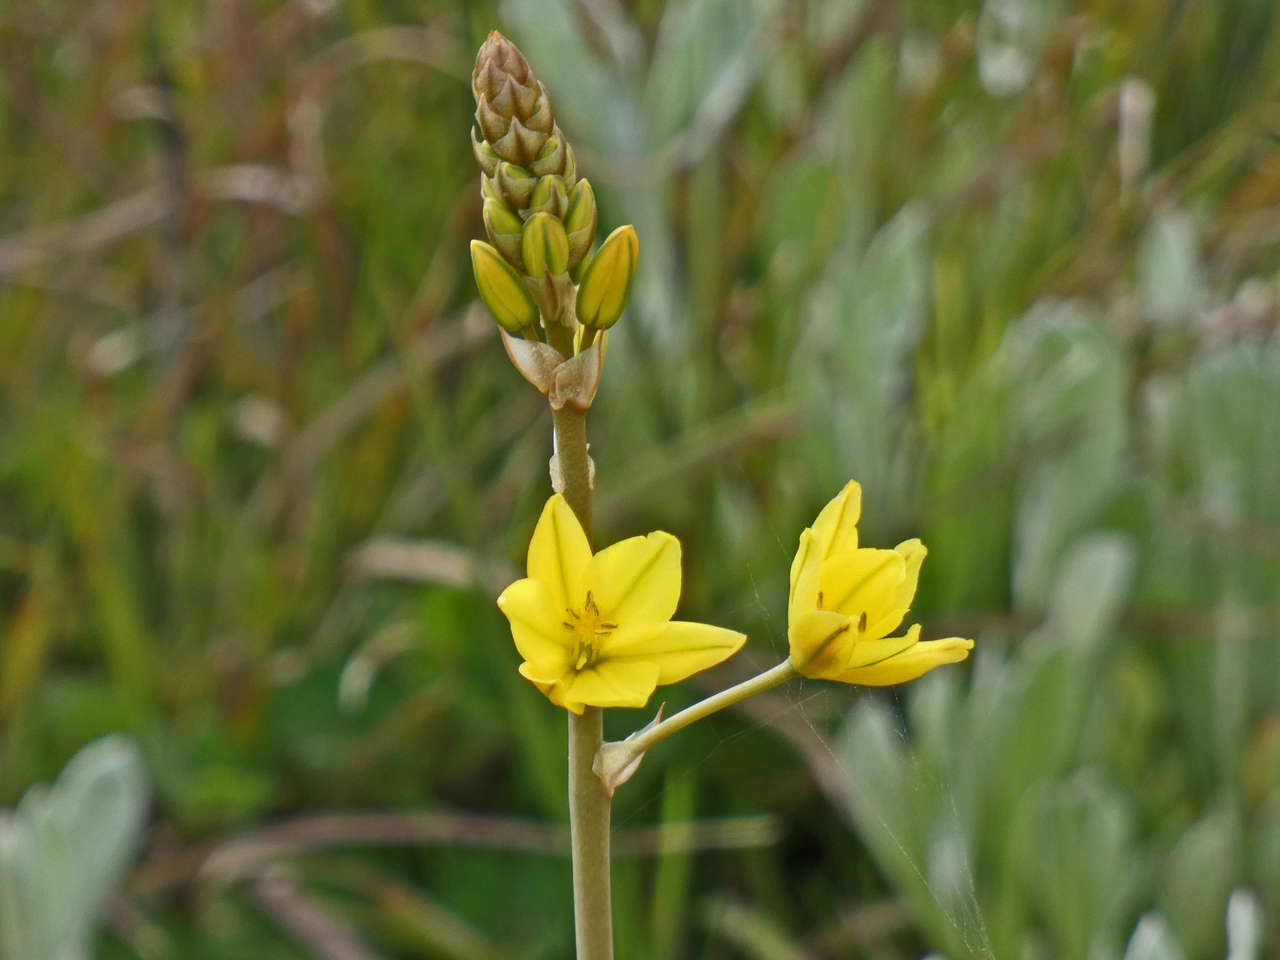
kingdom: Plantae
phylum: Tracheophyta
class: Liliopsida
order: Asparagales
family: Asphodelaceae
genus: Bulbine
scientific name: Bulbine bulbosa
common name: Golden-lily
